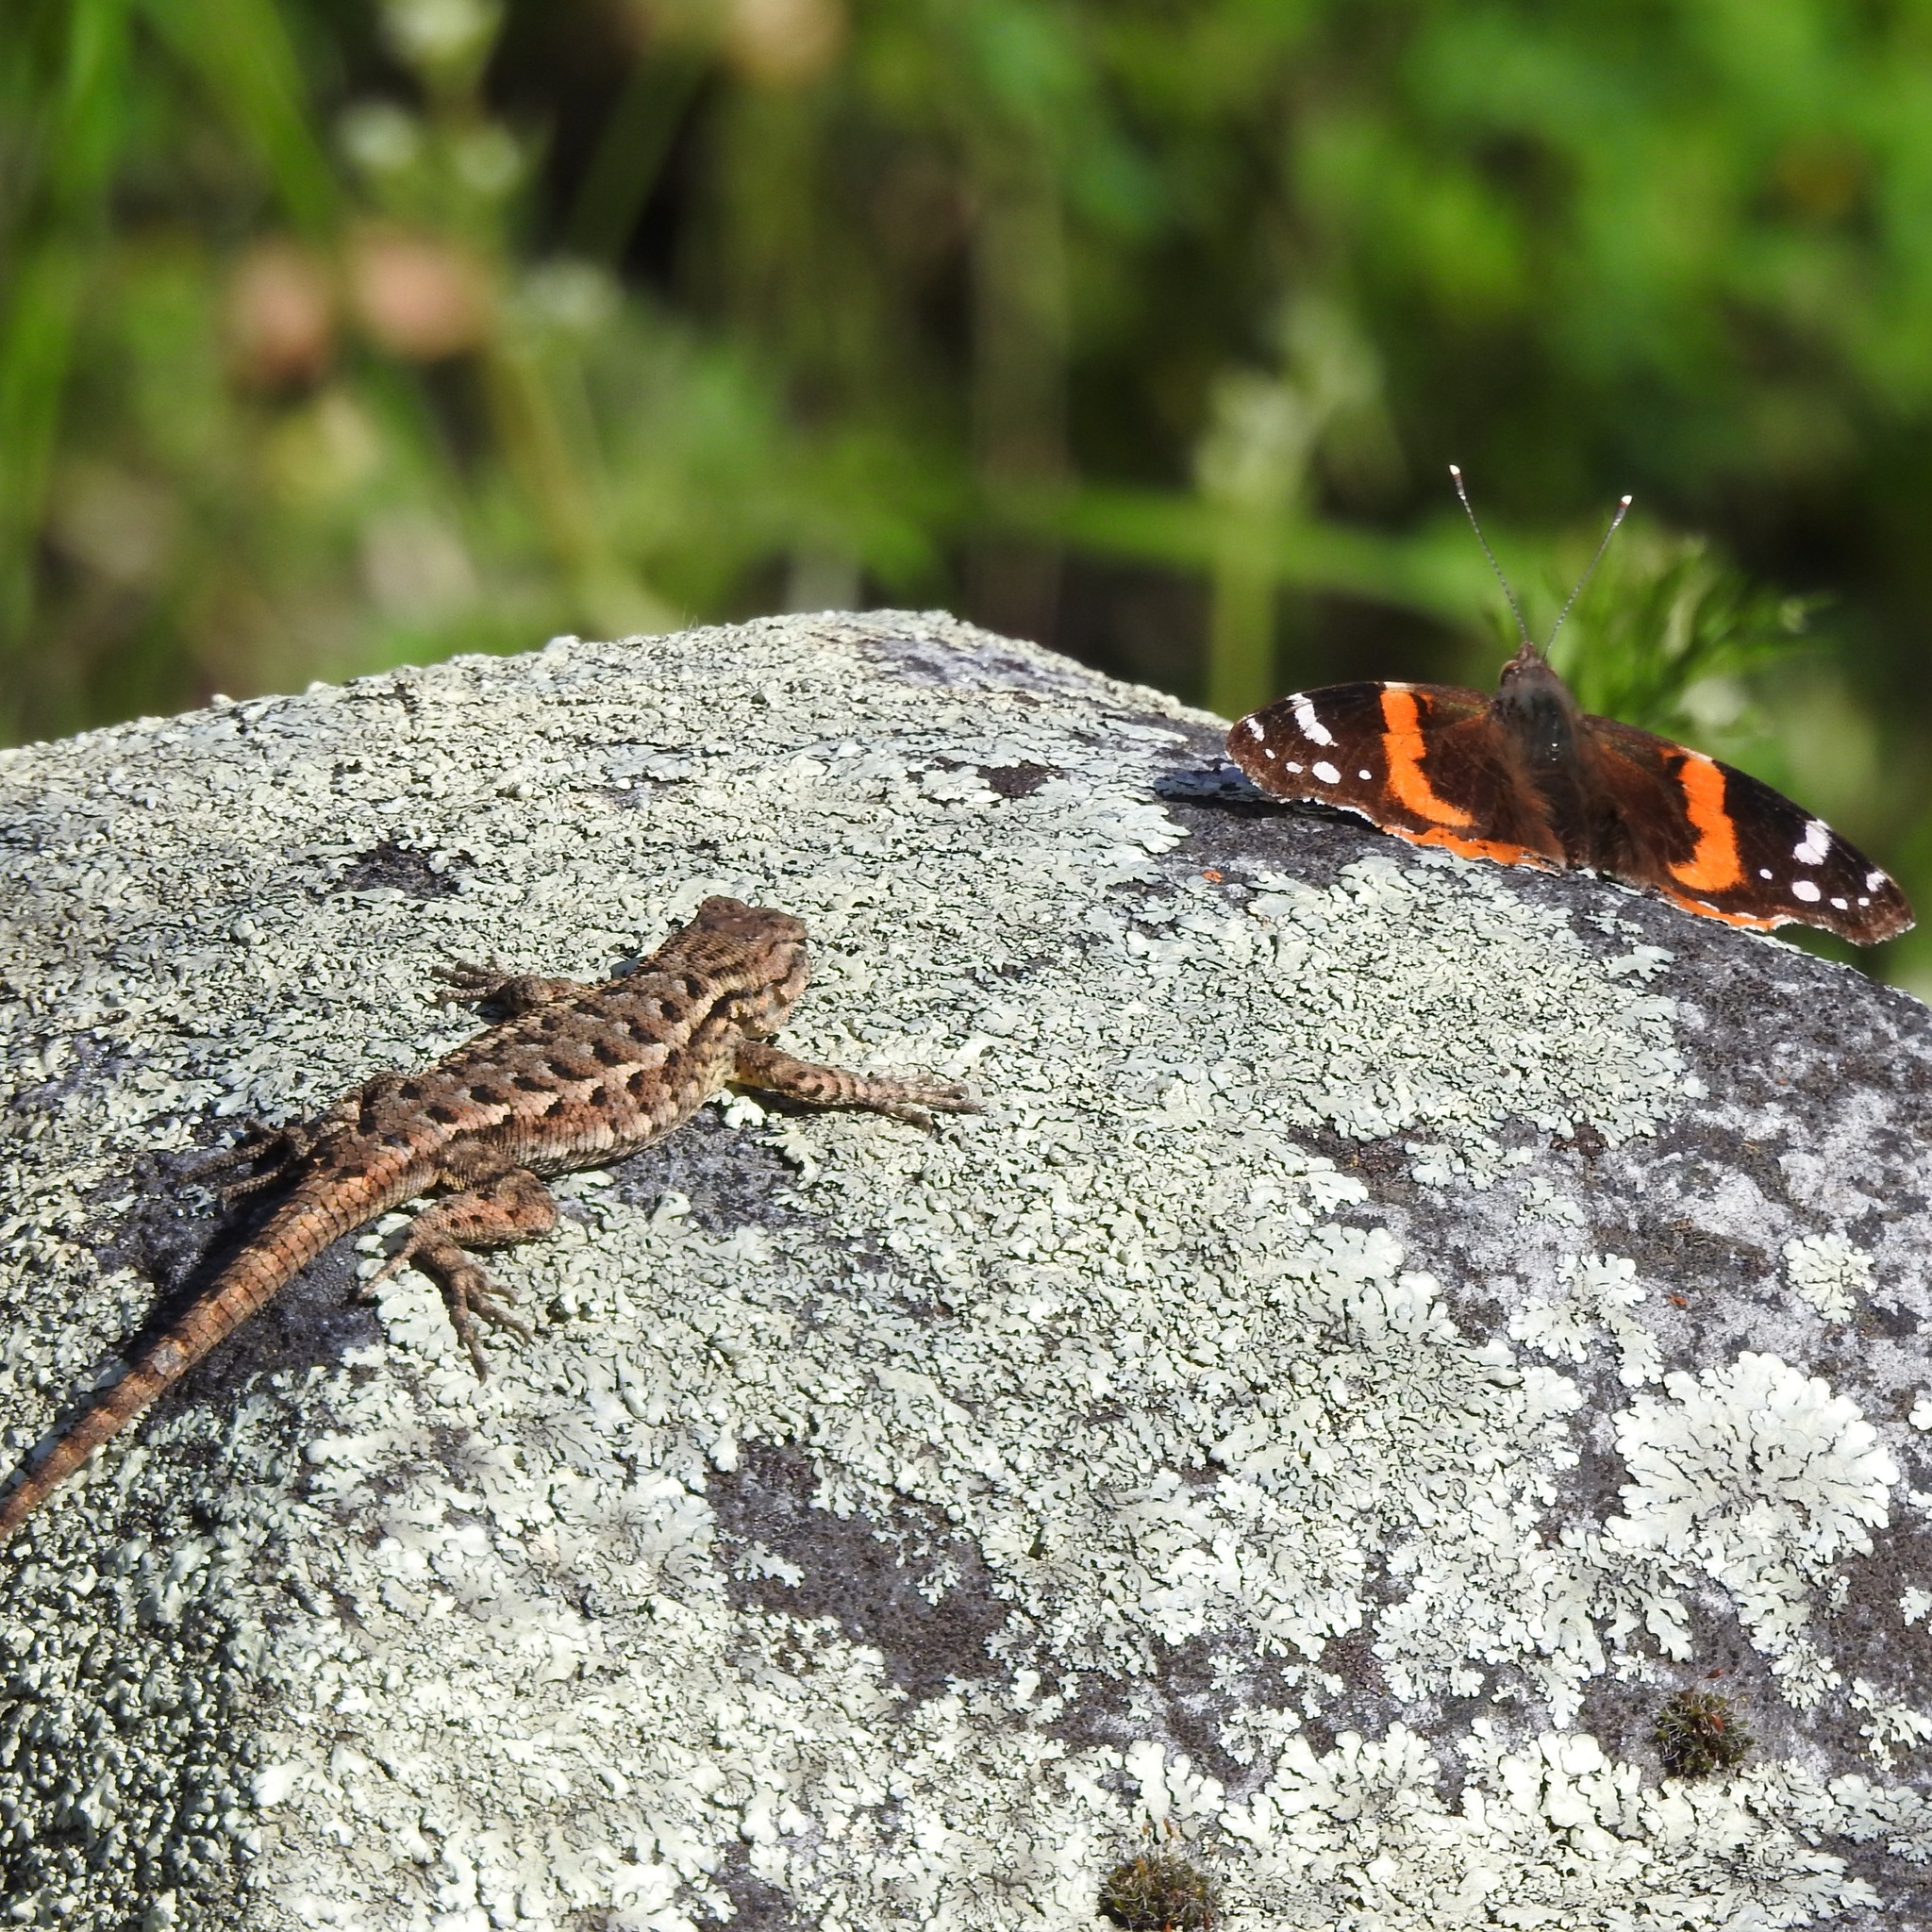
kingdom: Animalia
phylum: Chordata
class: Squamata
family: Phrynosomatidae
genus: Sceloporus
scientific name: Sceloporus occidentalis
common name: Western fence lizard
